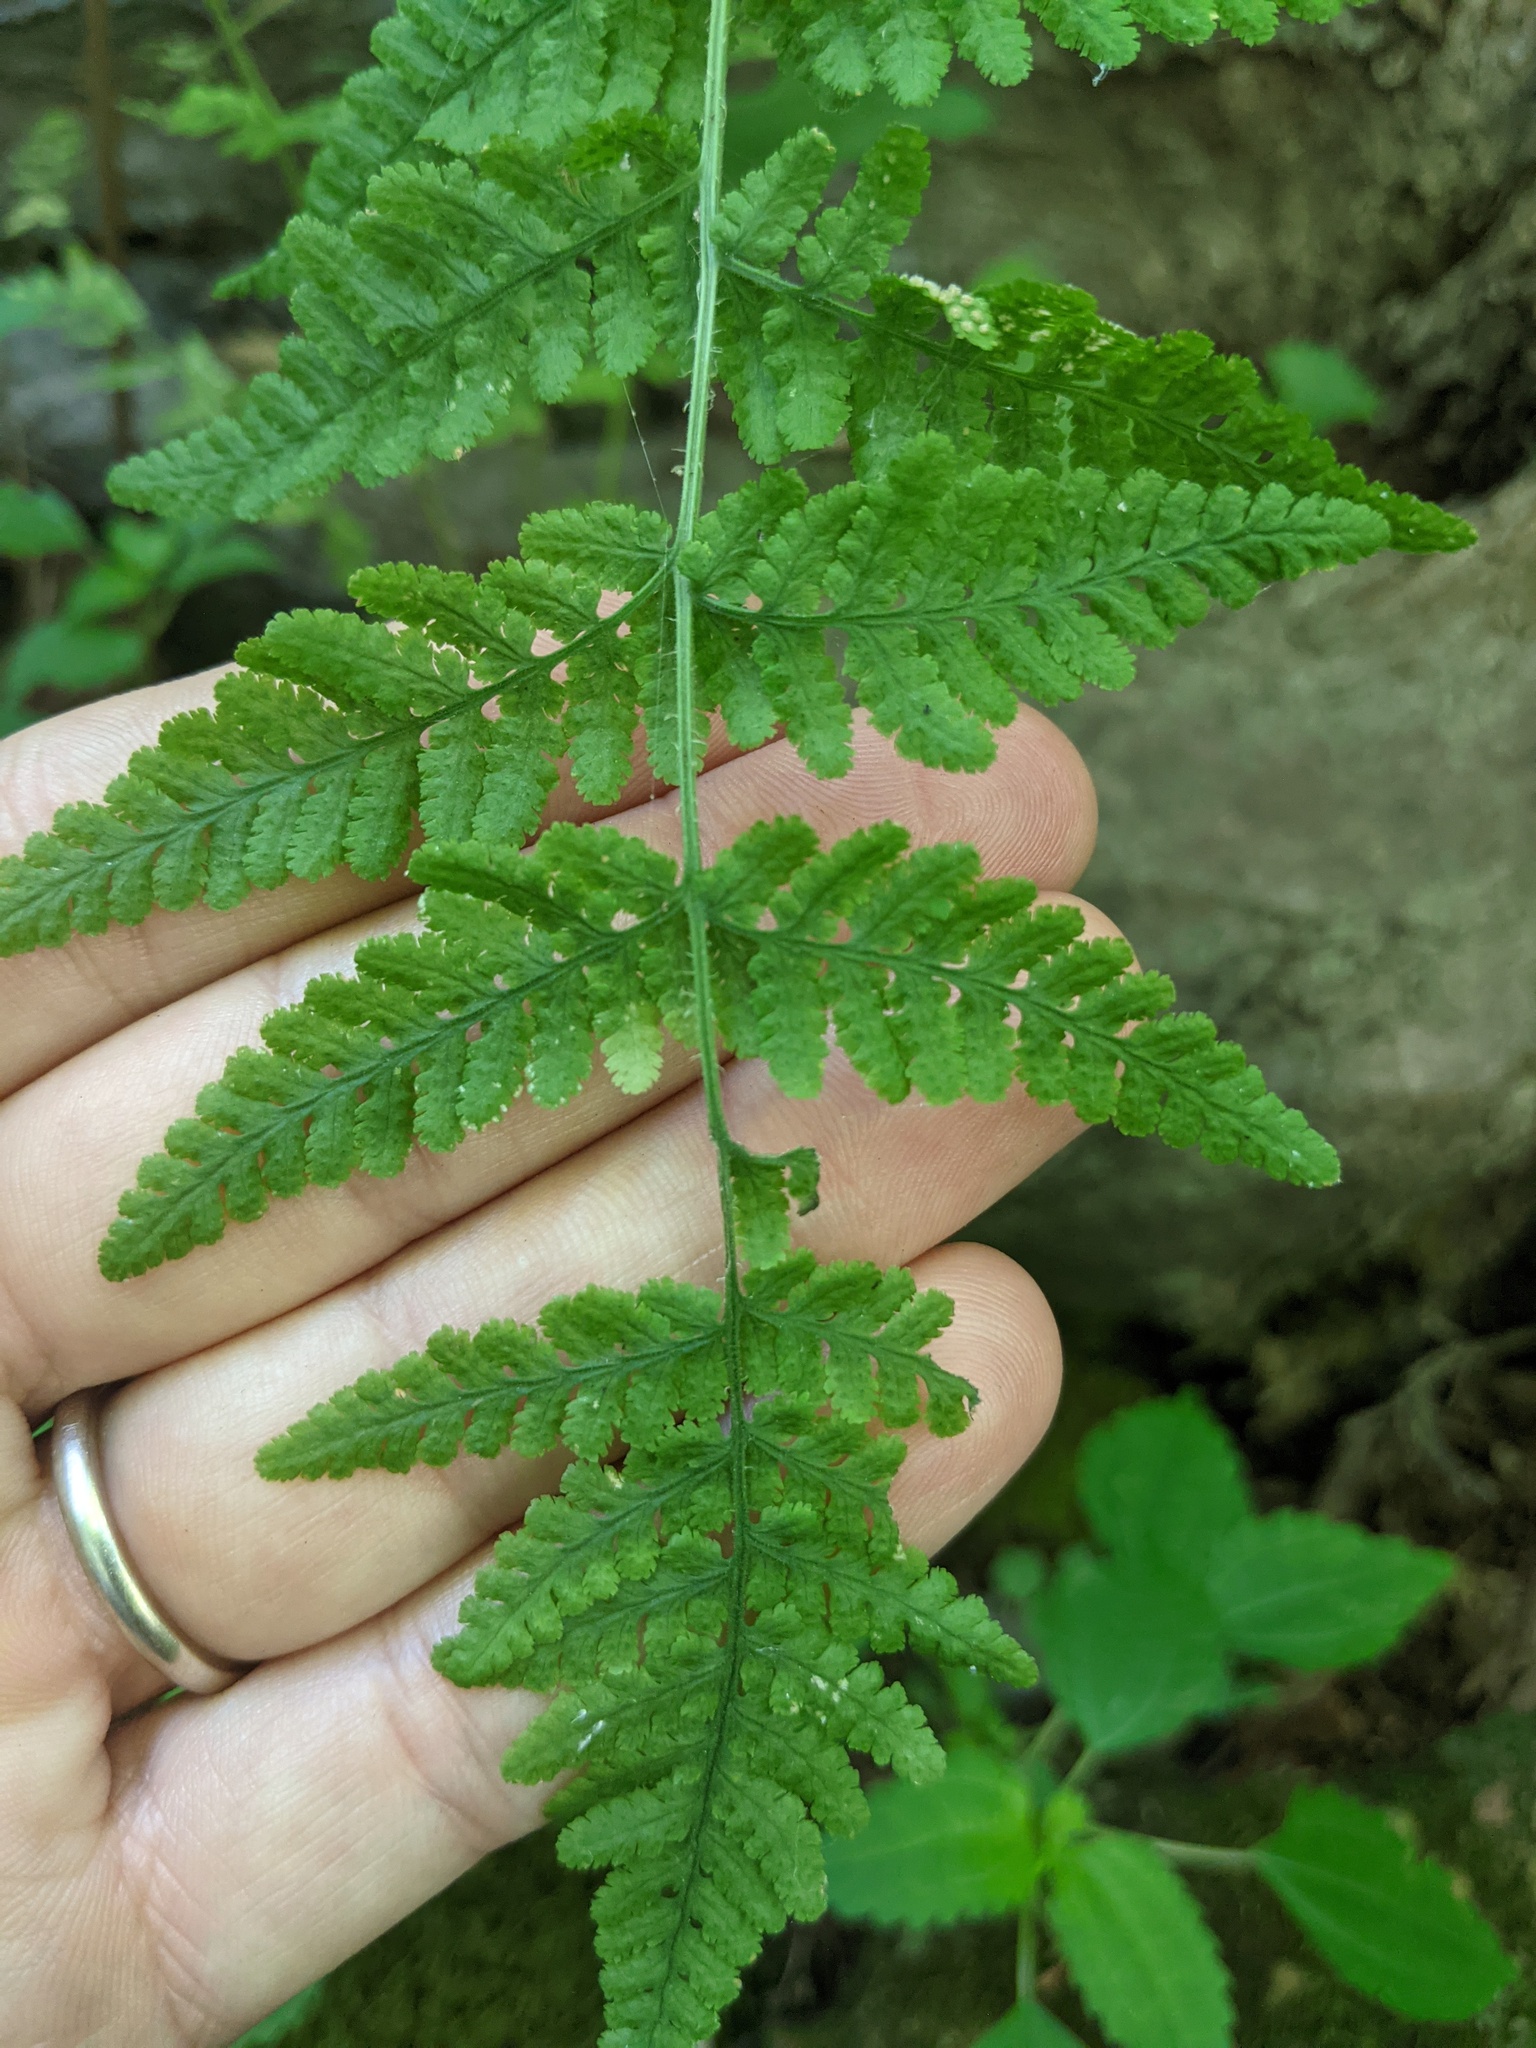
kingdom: Plantae
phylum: Tracheophyta
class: Polypodiopsida
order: Polypodiales
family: Woodsiaceae
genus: Physematium
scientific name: Physematium obtusum
